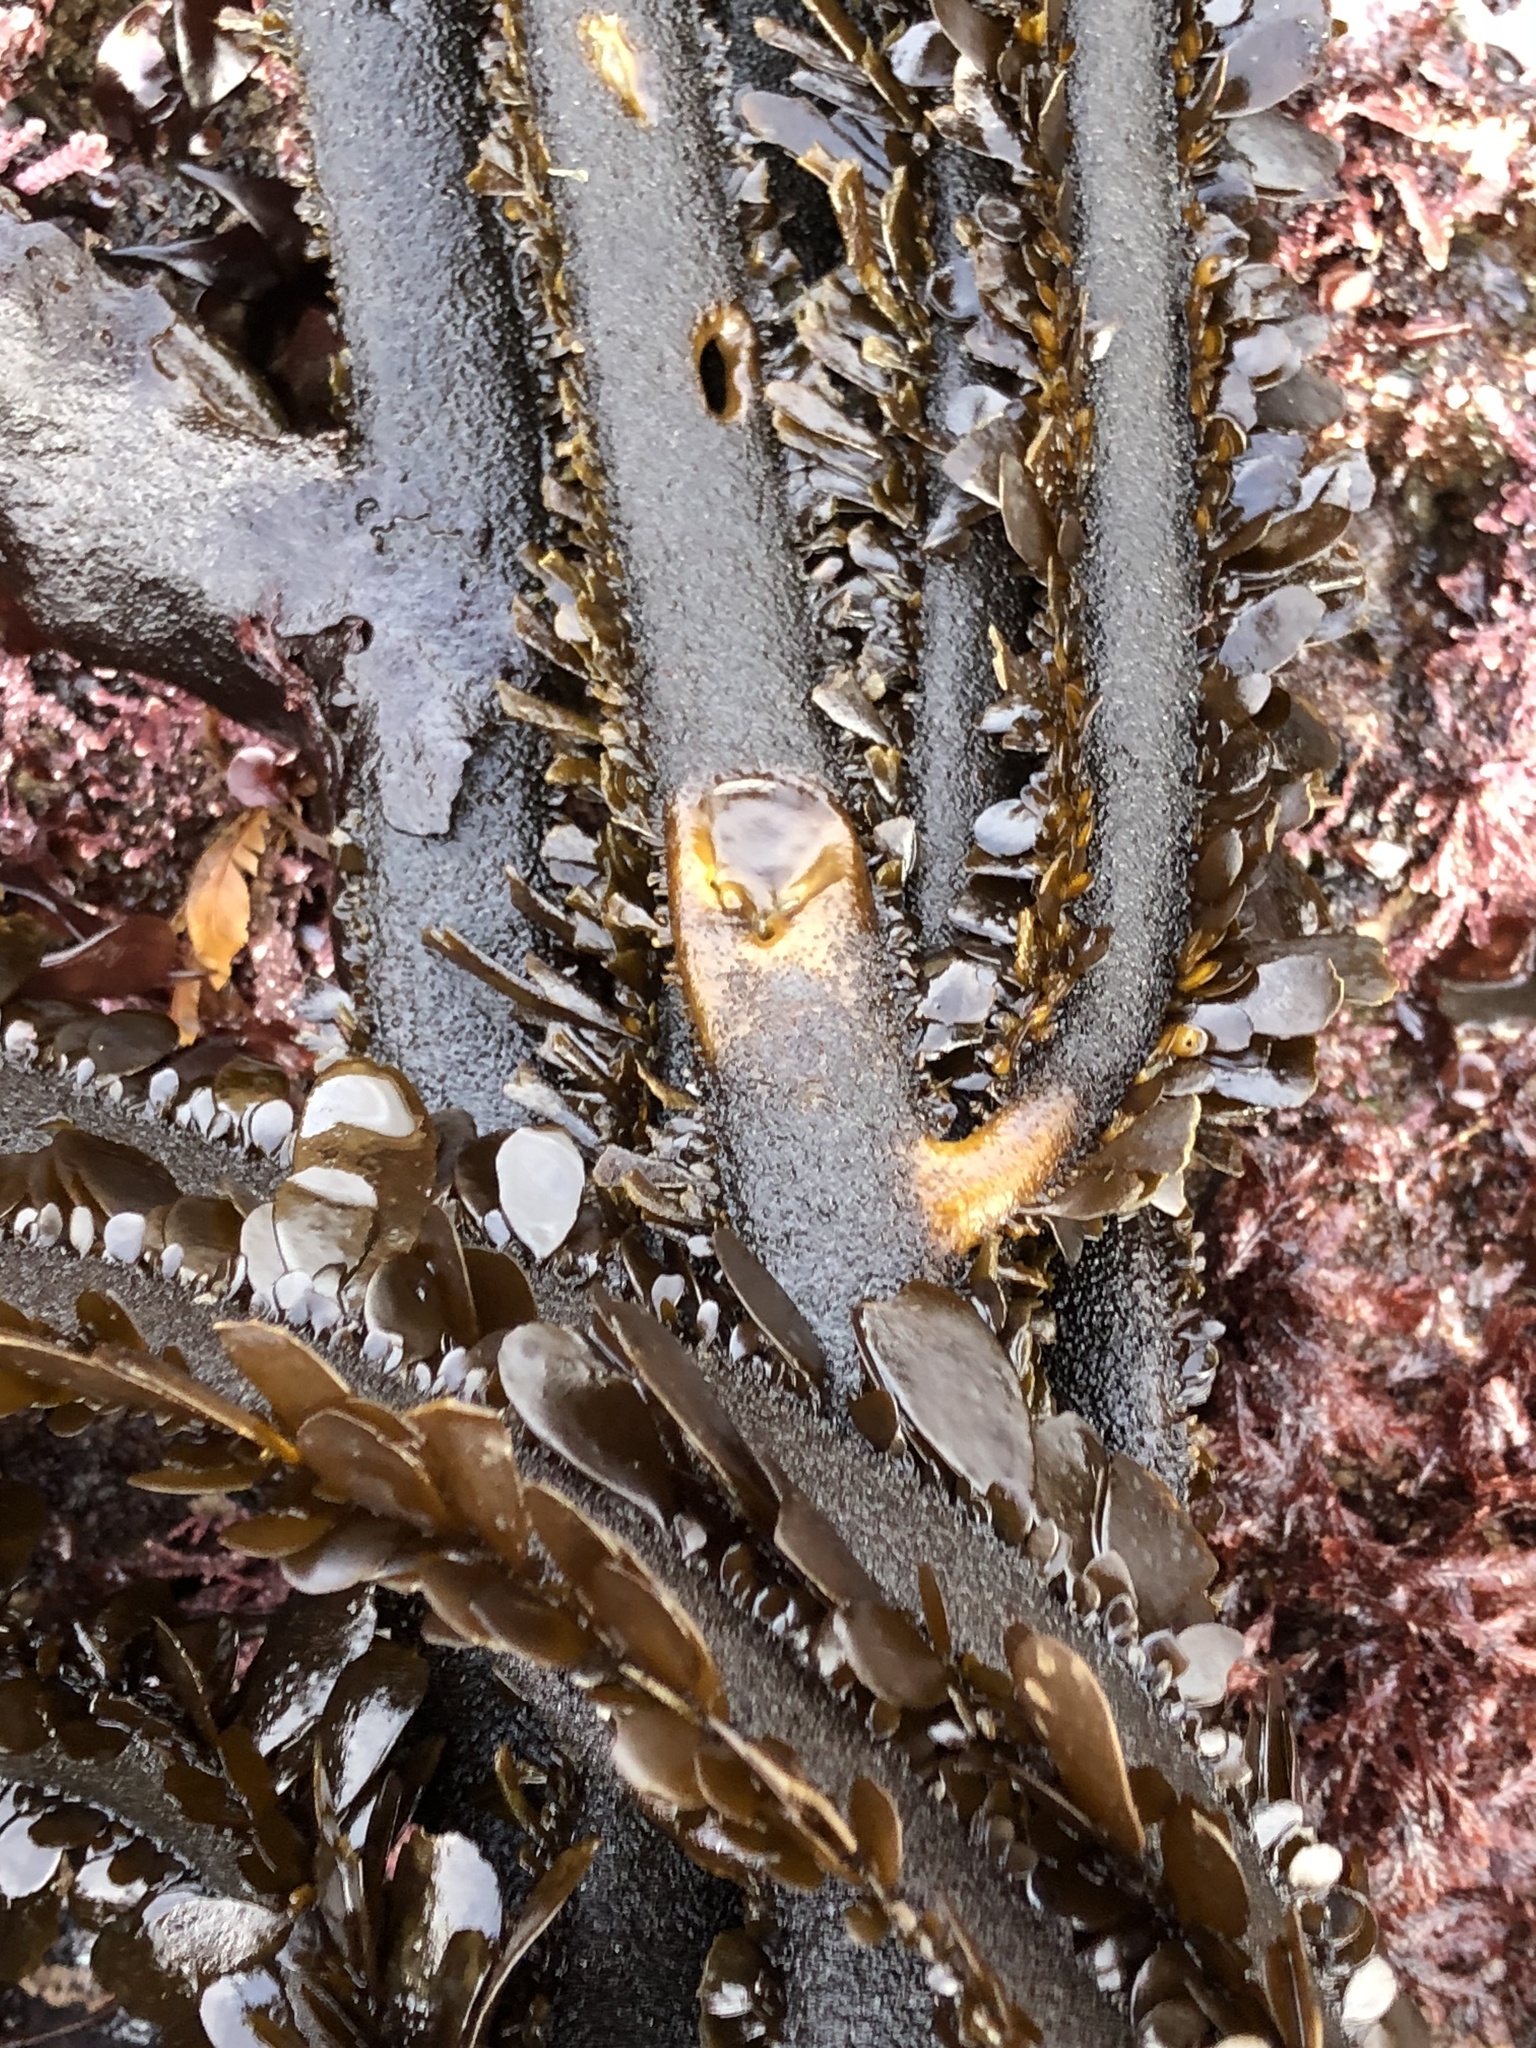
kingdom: Chromista
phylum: Ochrophyta
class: Phaeophyceae
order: Laminariales
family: Lessoniaceae
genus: Egregia
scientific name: Egregia menziesii
